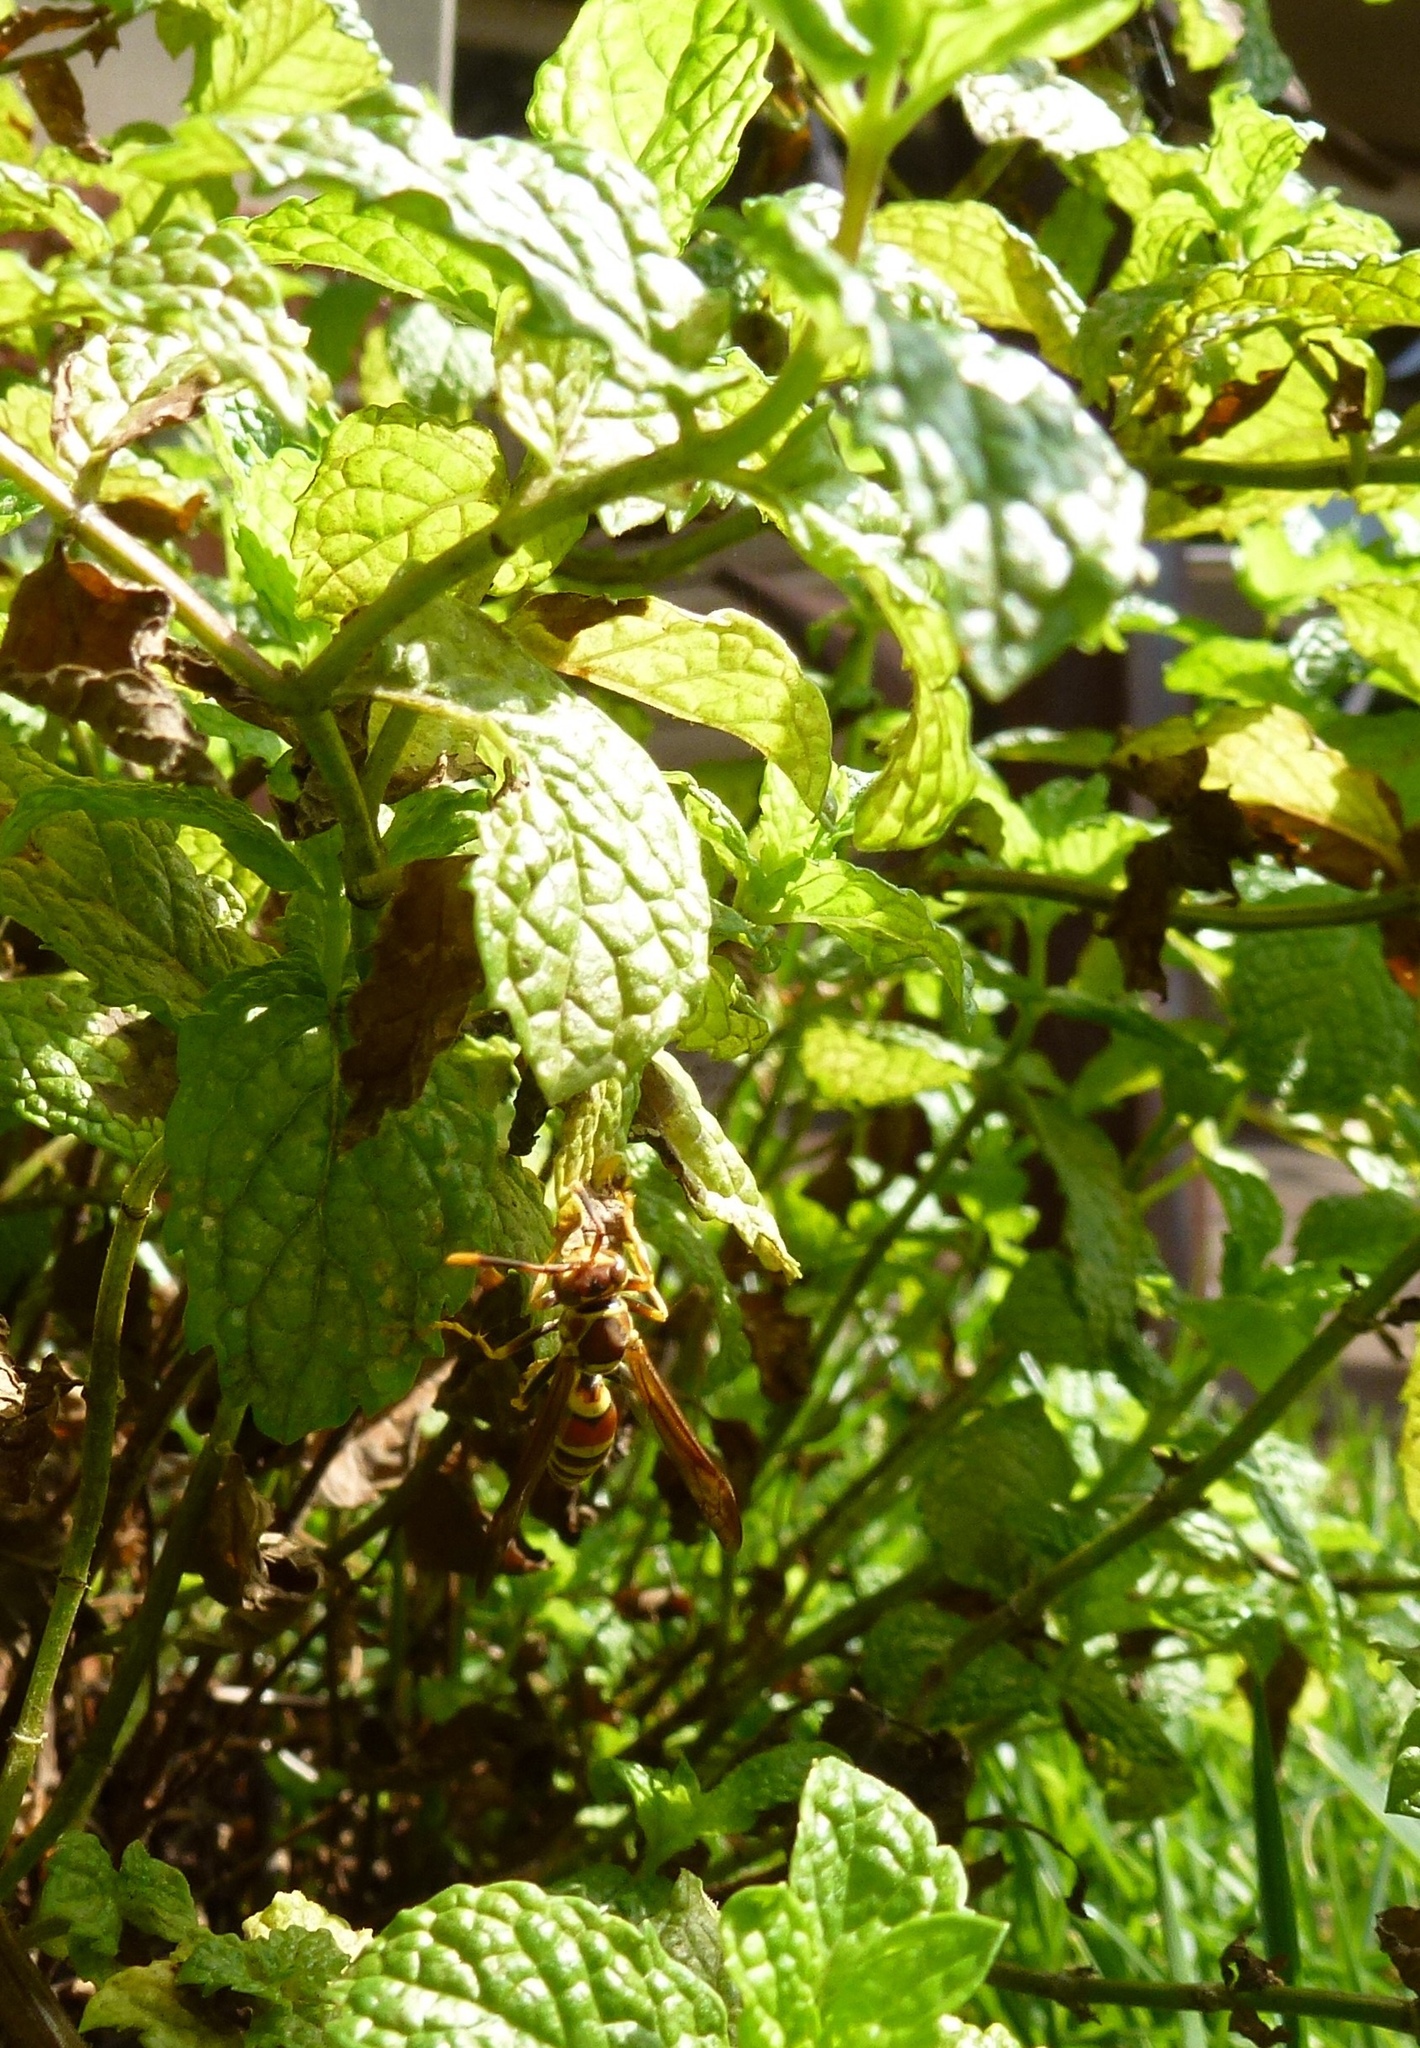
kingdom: Animalia
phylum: Arthropoda
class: Insecta
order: Hymenoptera
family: Eumenidae
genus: Polistes
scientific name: Polistes exclamans
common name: Paper wasp
